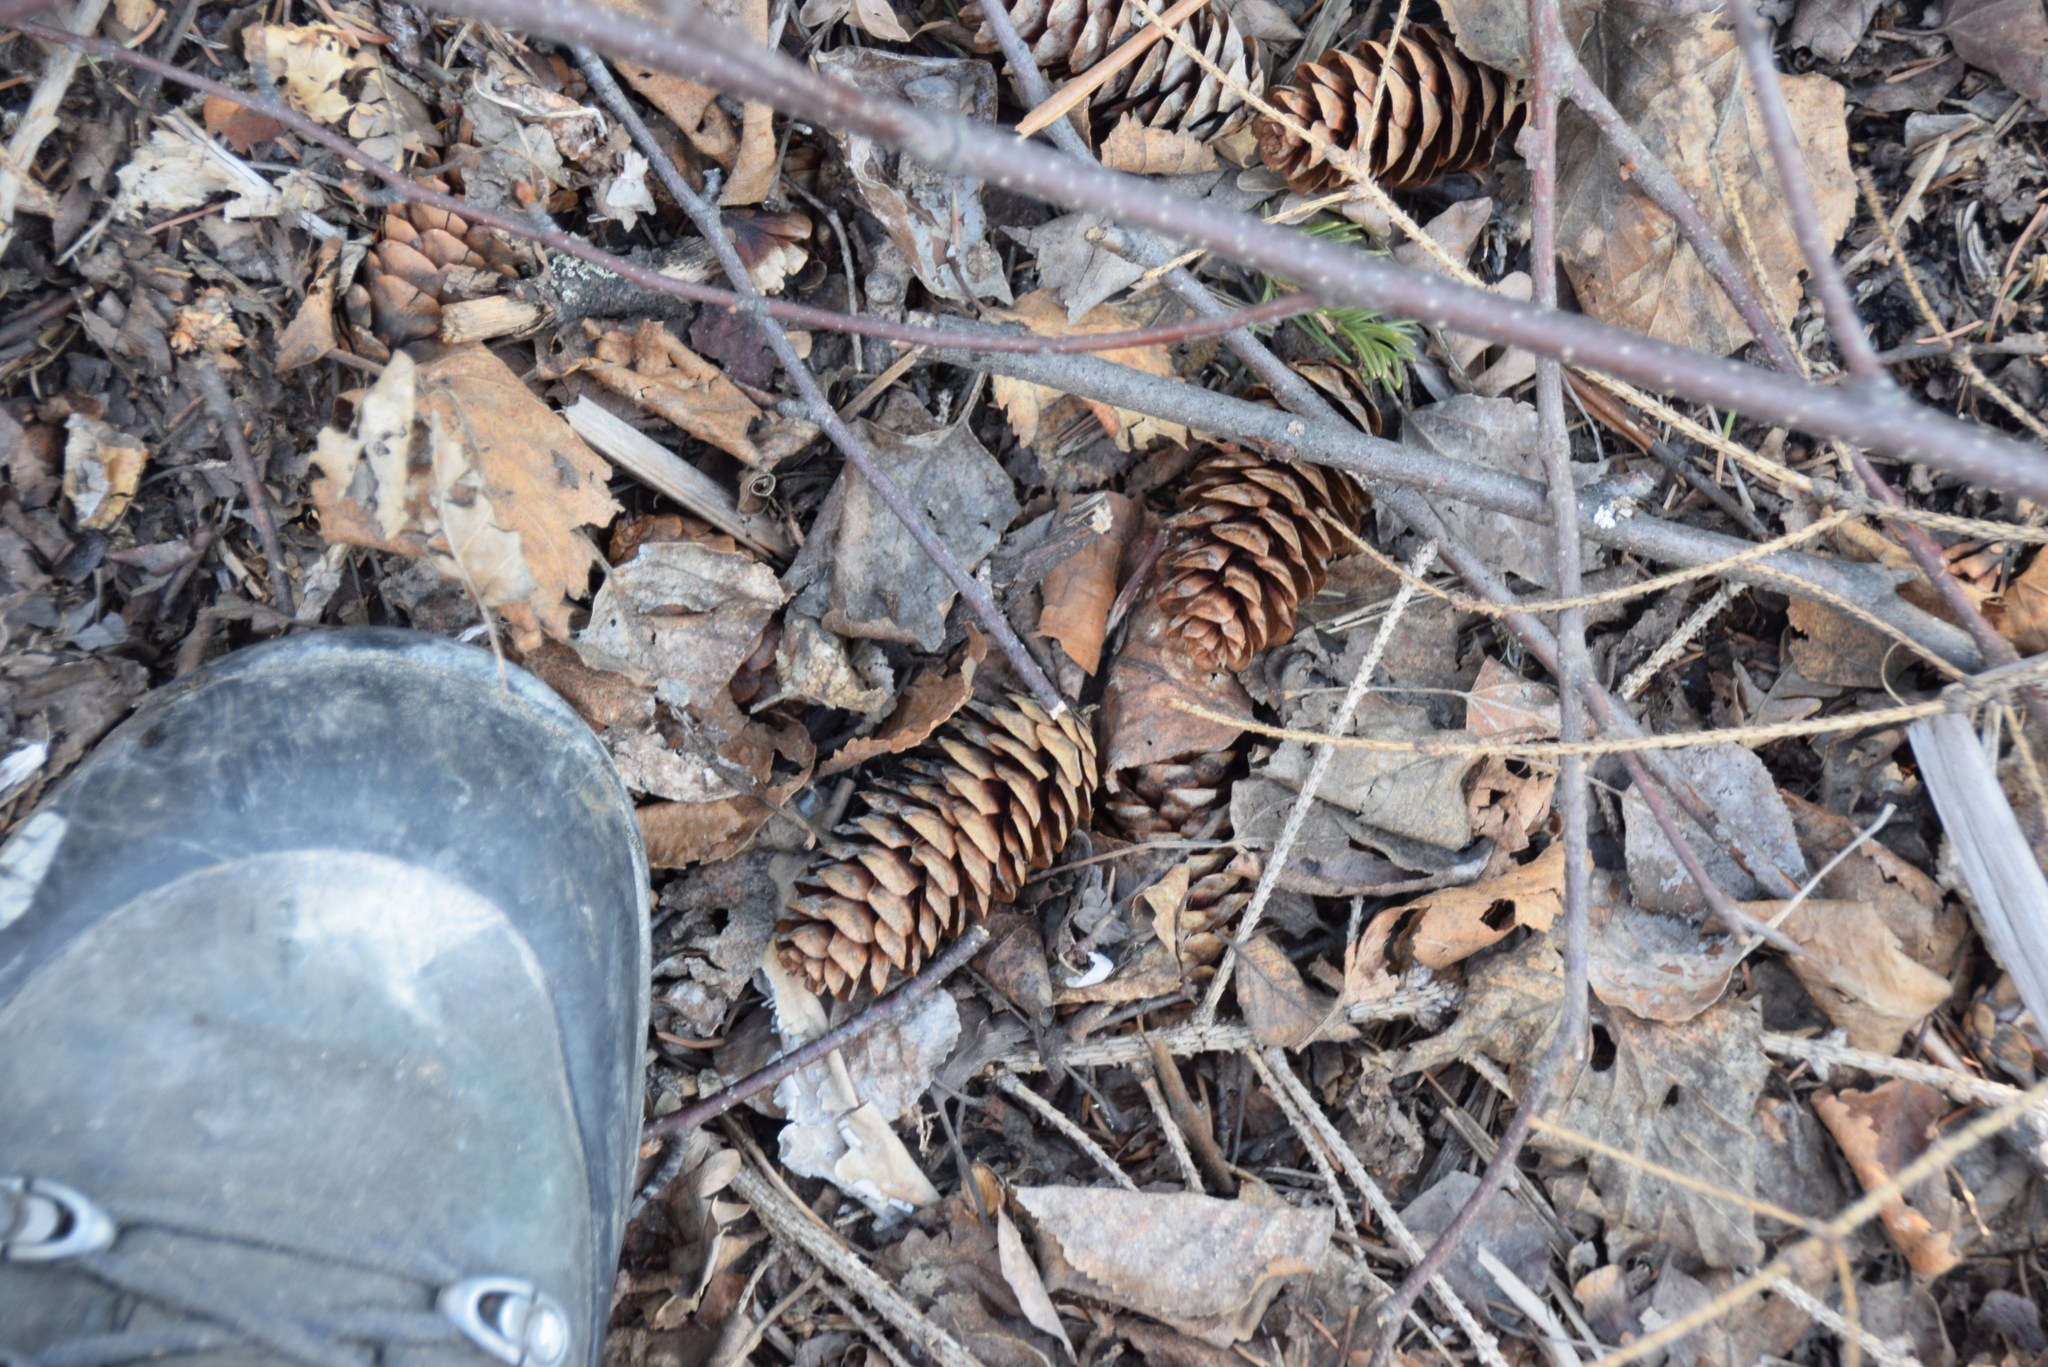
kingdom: Plantae
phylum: Tracheophyta
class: Pinopsida
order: Pinales
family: Pinaceae
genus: Picea
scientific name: Picea glauca
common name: White spruce
